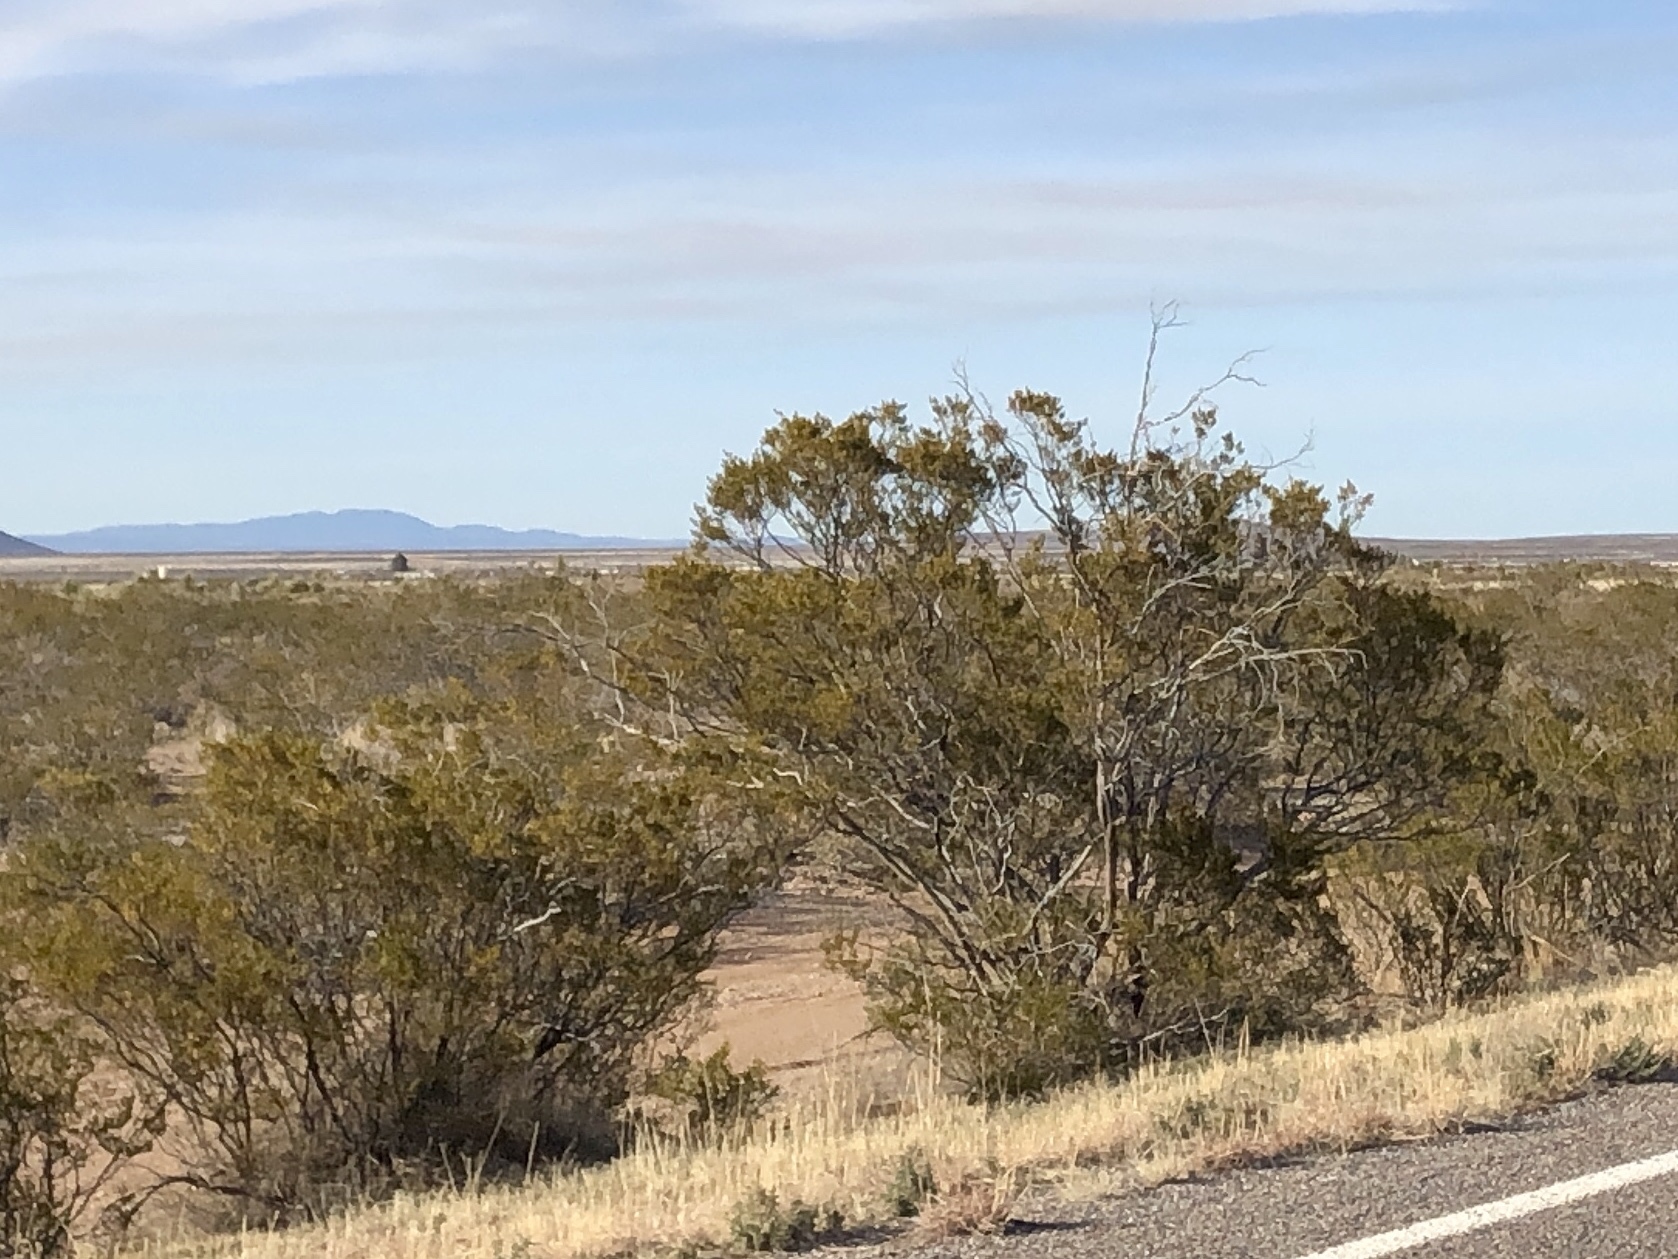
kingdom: Plantae
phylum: Tracheophyta
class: Magnoliopsida
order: Zygophyllales
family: Zygophyllaceae
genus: Larrea
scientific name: Larrea tridentata
